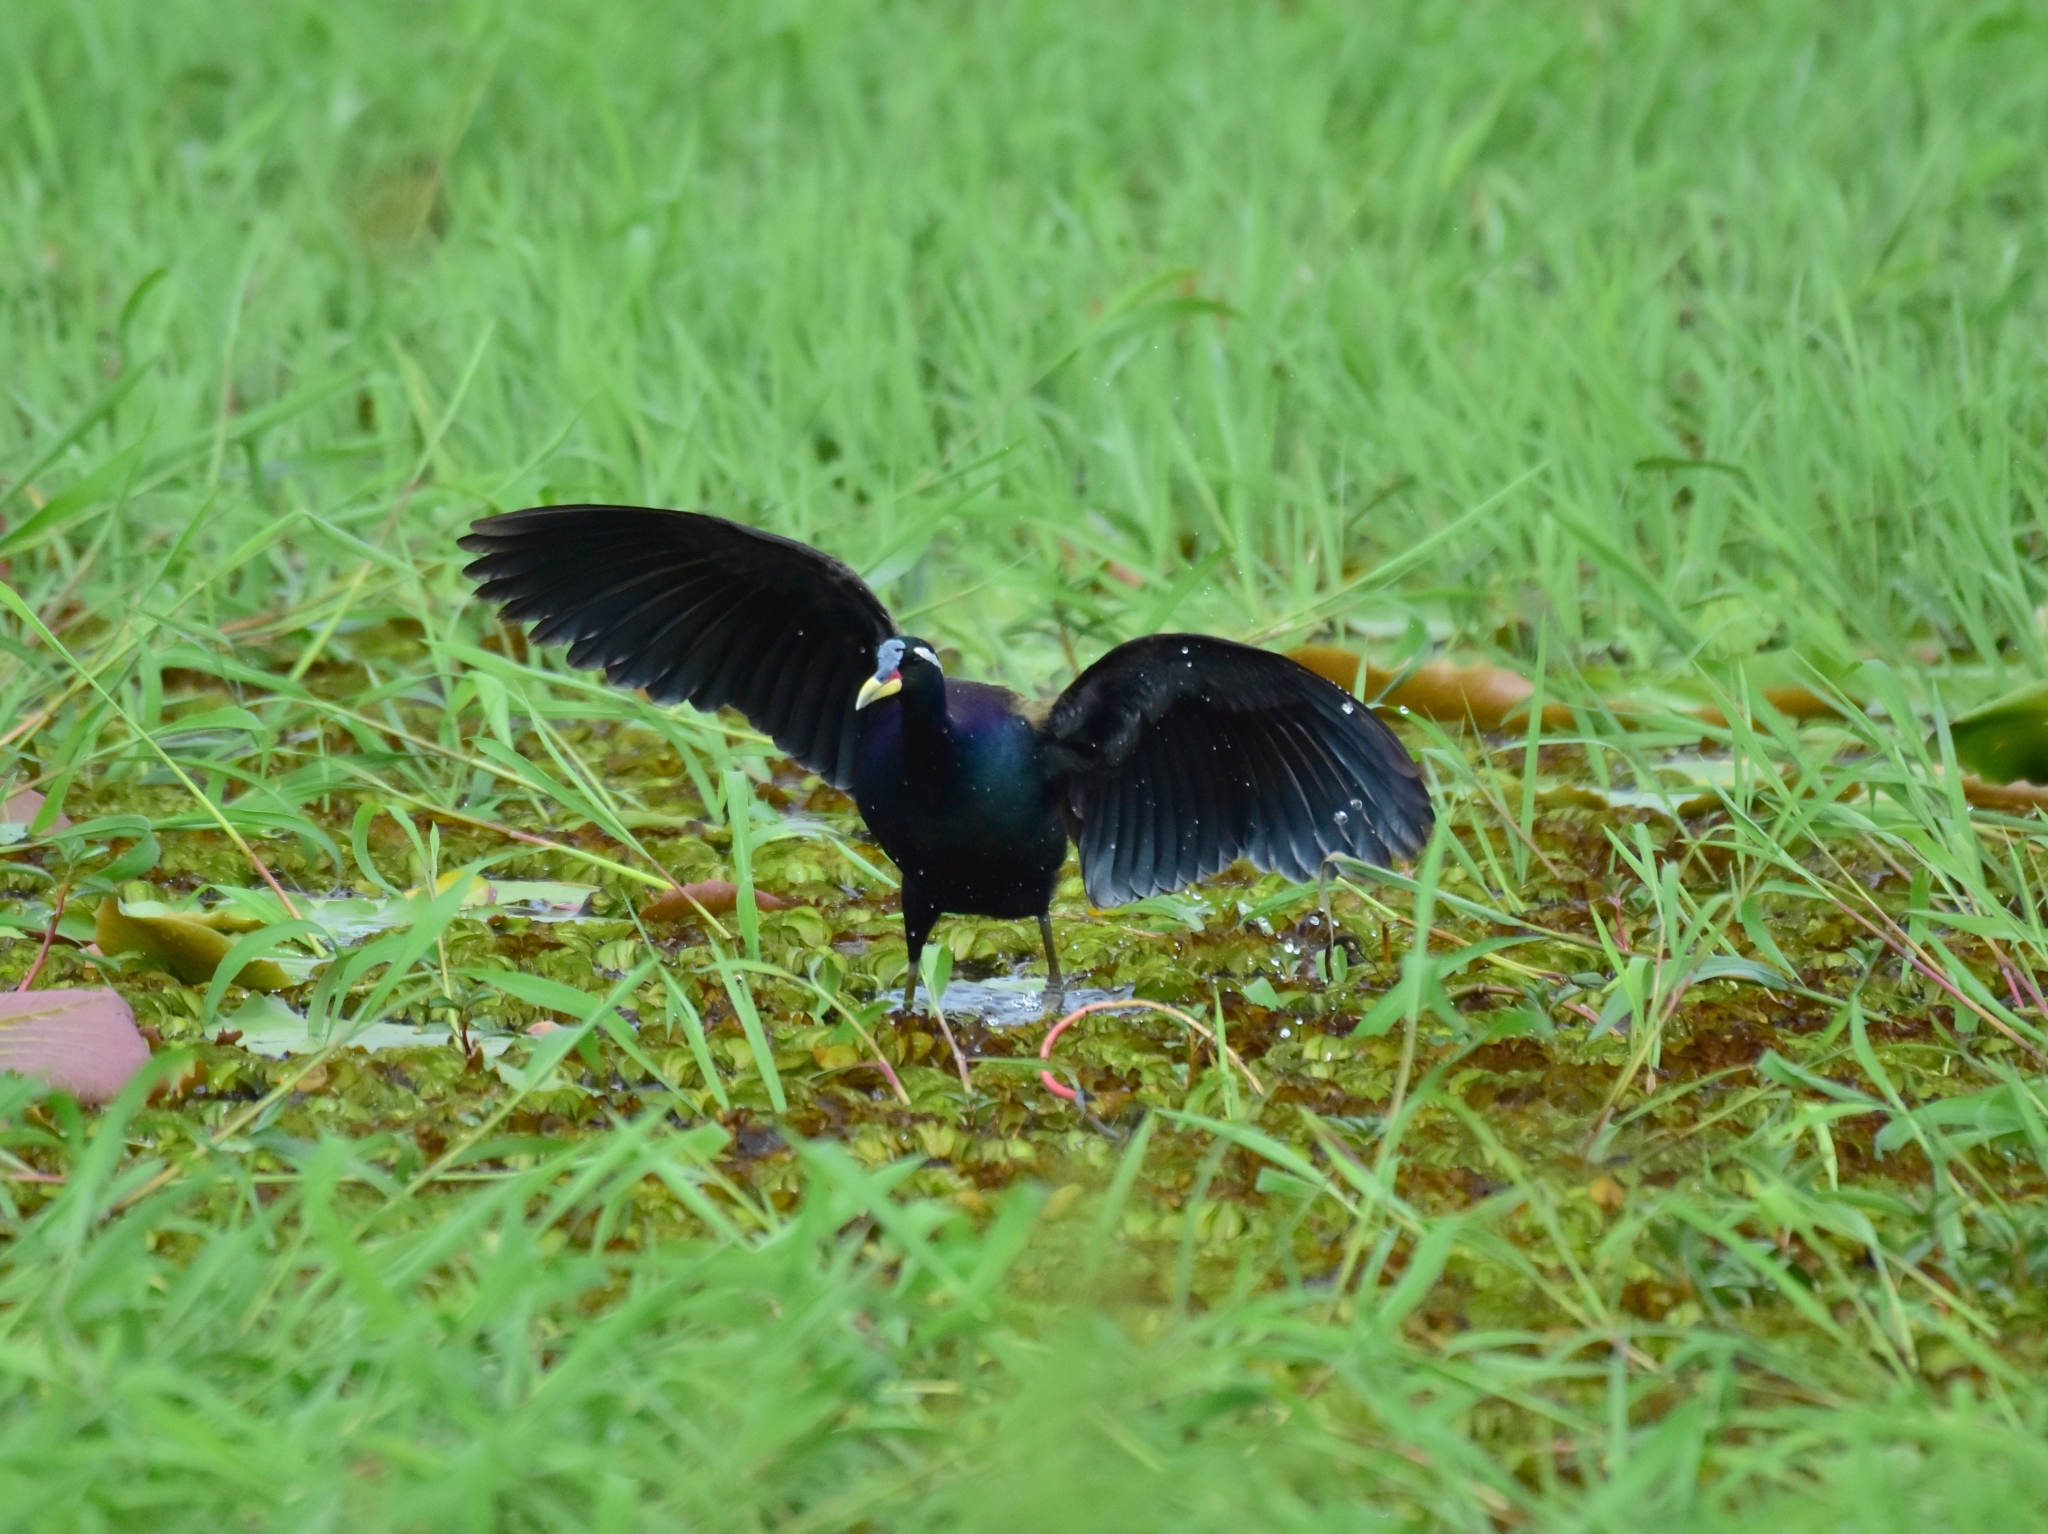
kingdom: Animalia
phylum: Chordata
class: Aves
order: Charadriiformes
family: Jacanidae
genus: Metopidius
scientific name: Metopidius indicus
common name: Bronze-winged jacana
